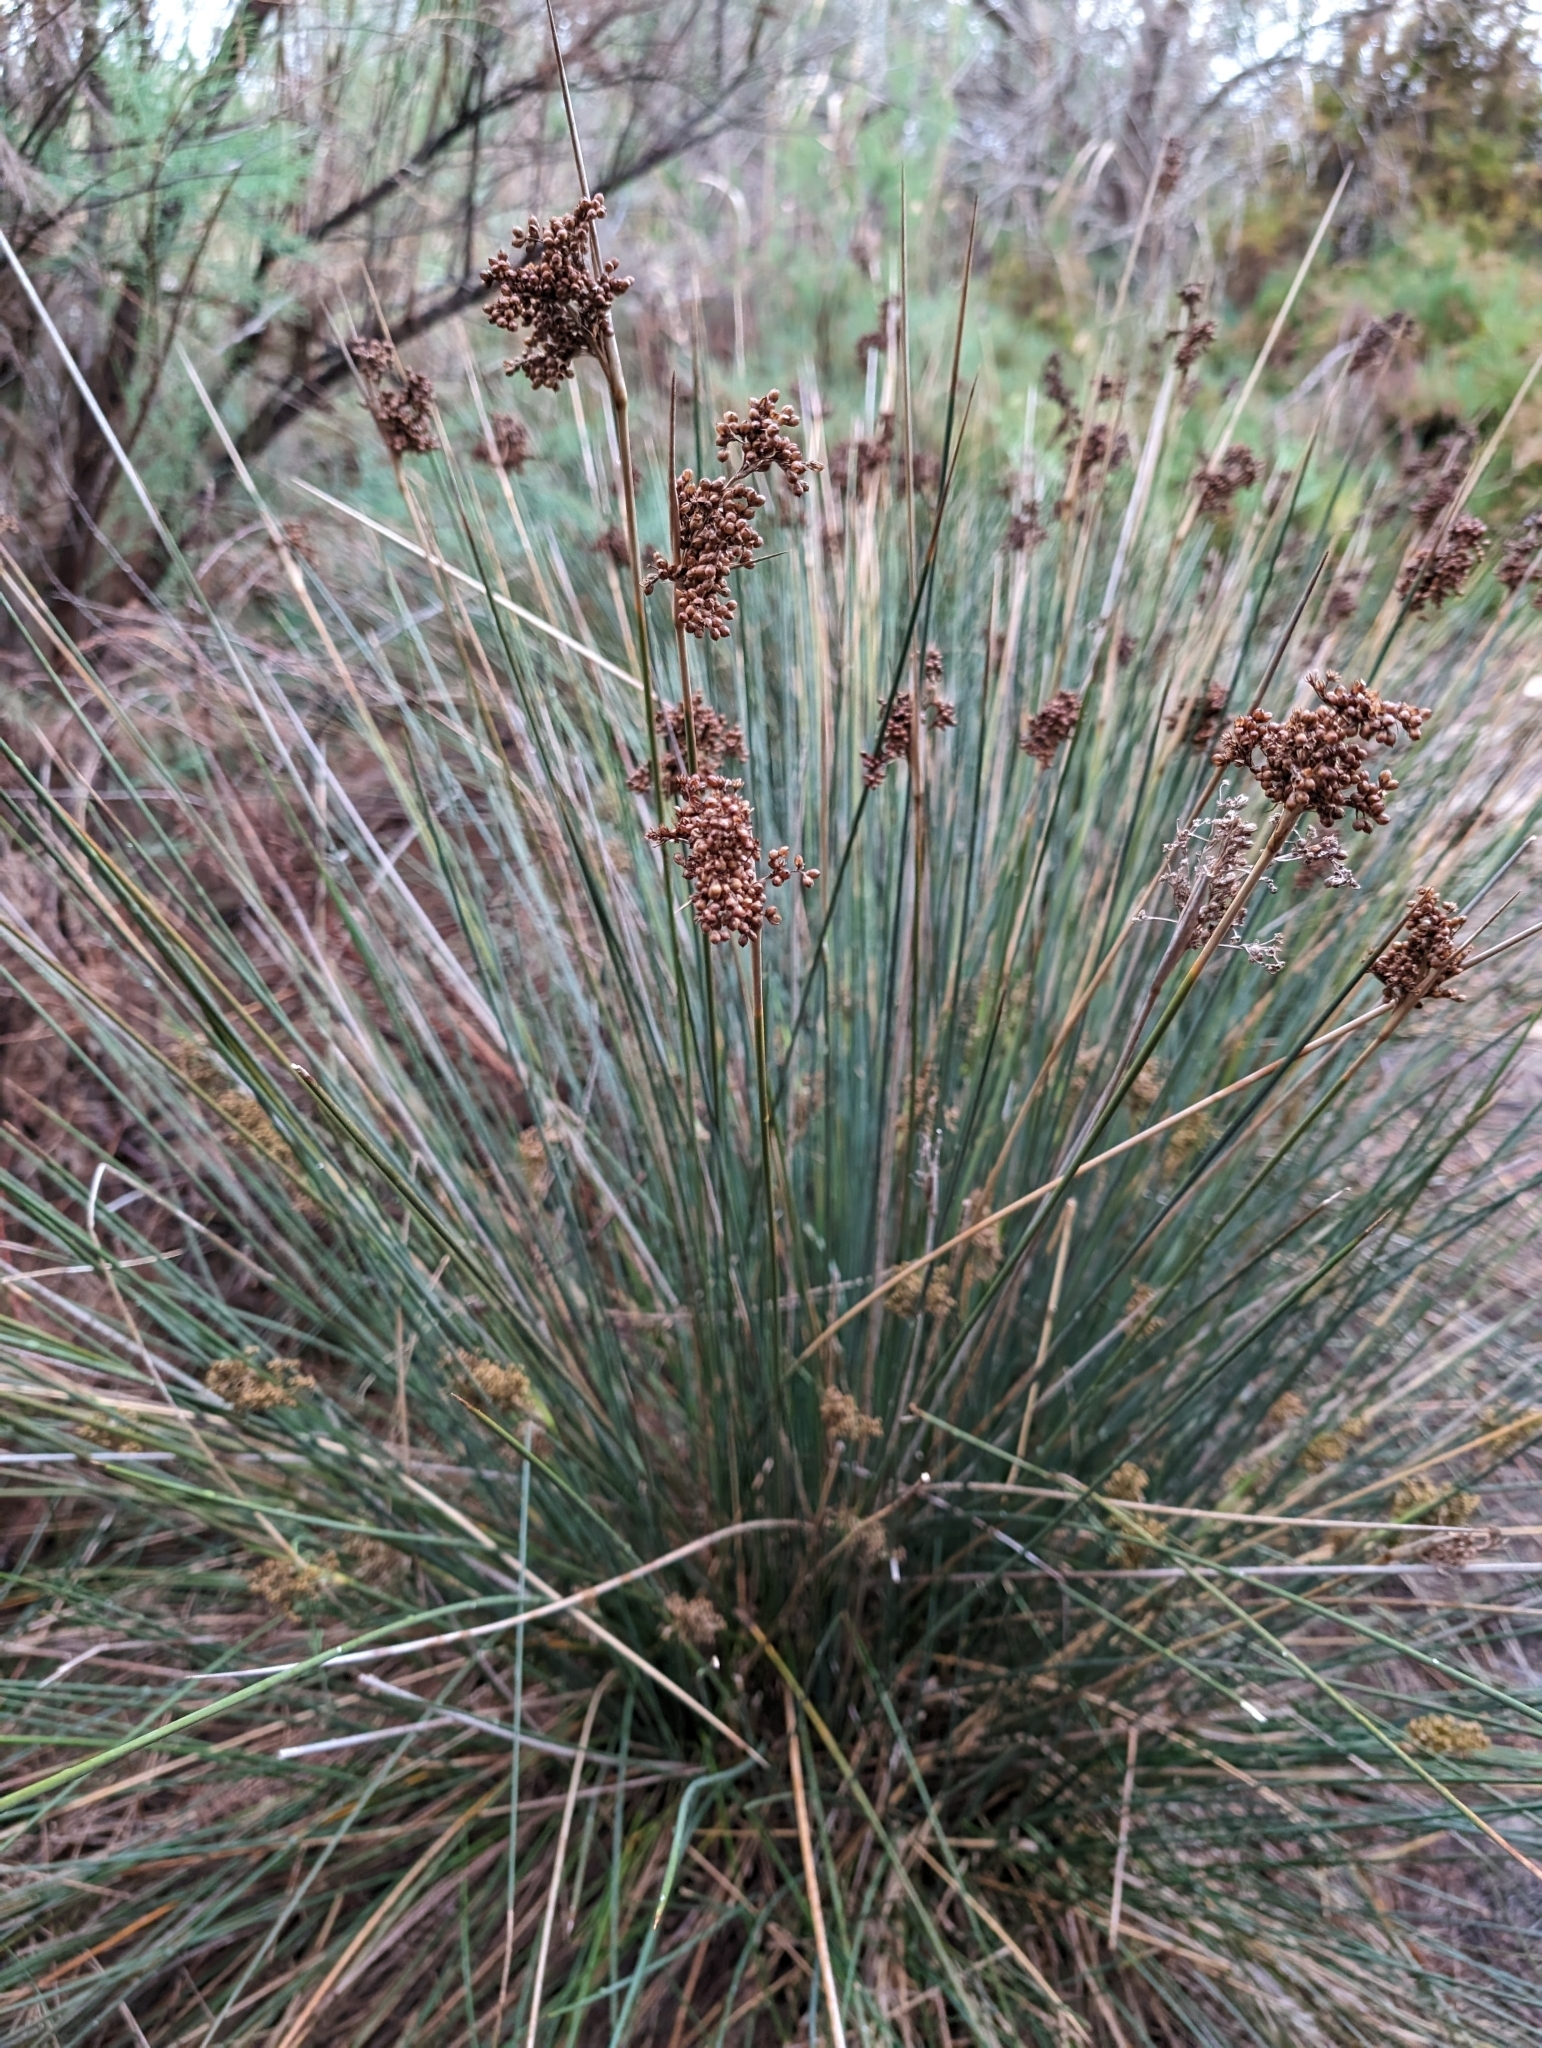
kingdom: Plantae
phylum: Tracheophyta
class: Liliopsida
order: Poales
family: Juncaceae
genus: Juncus
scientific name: Juncus acutus
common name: Sharp rush
